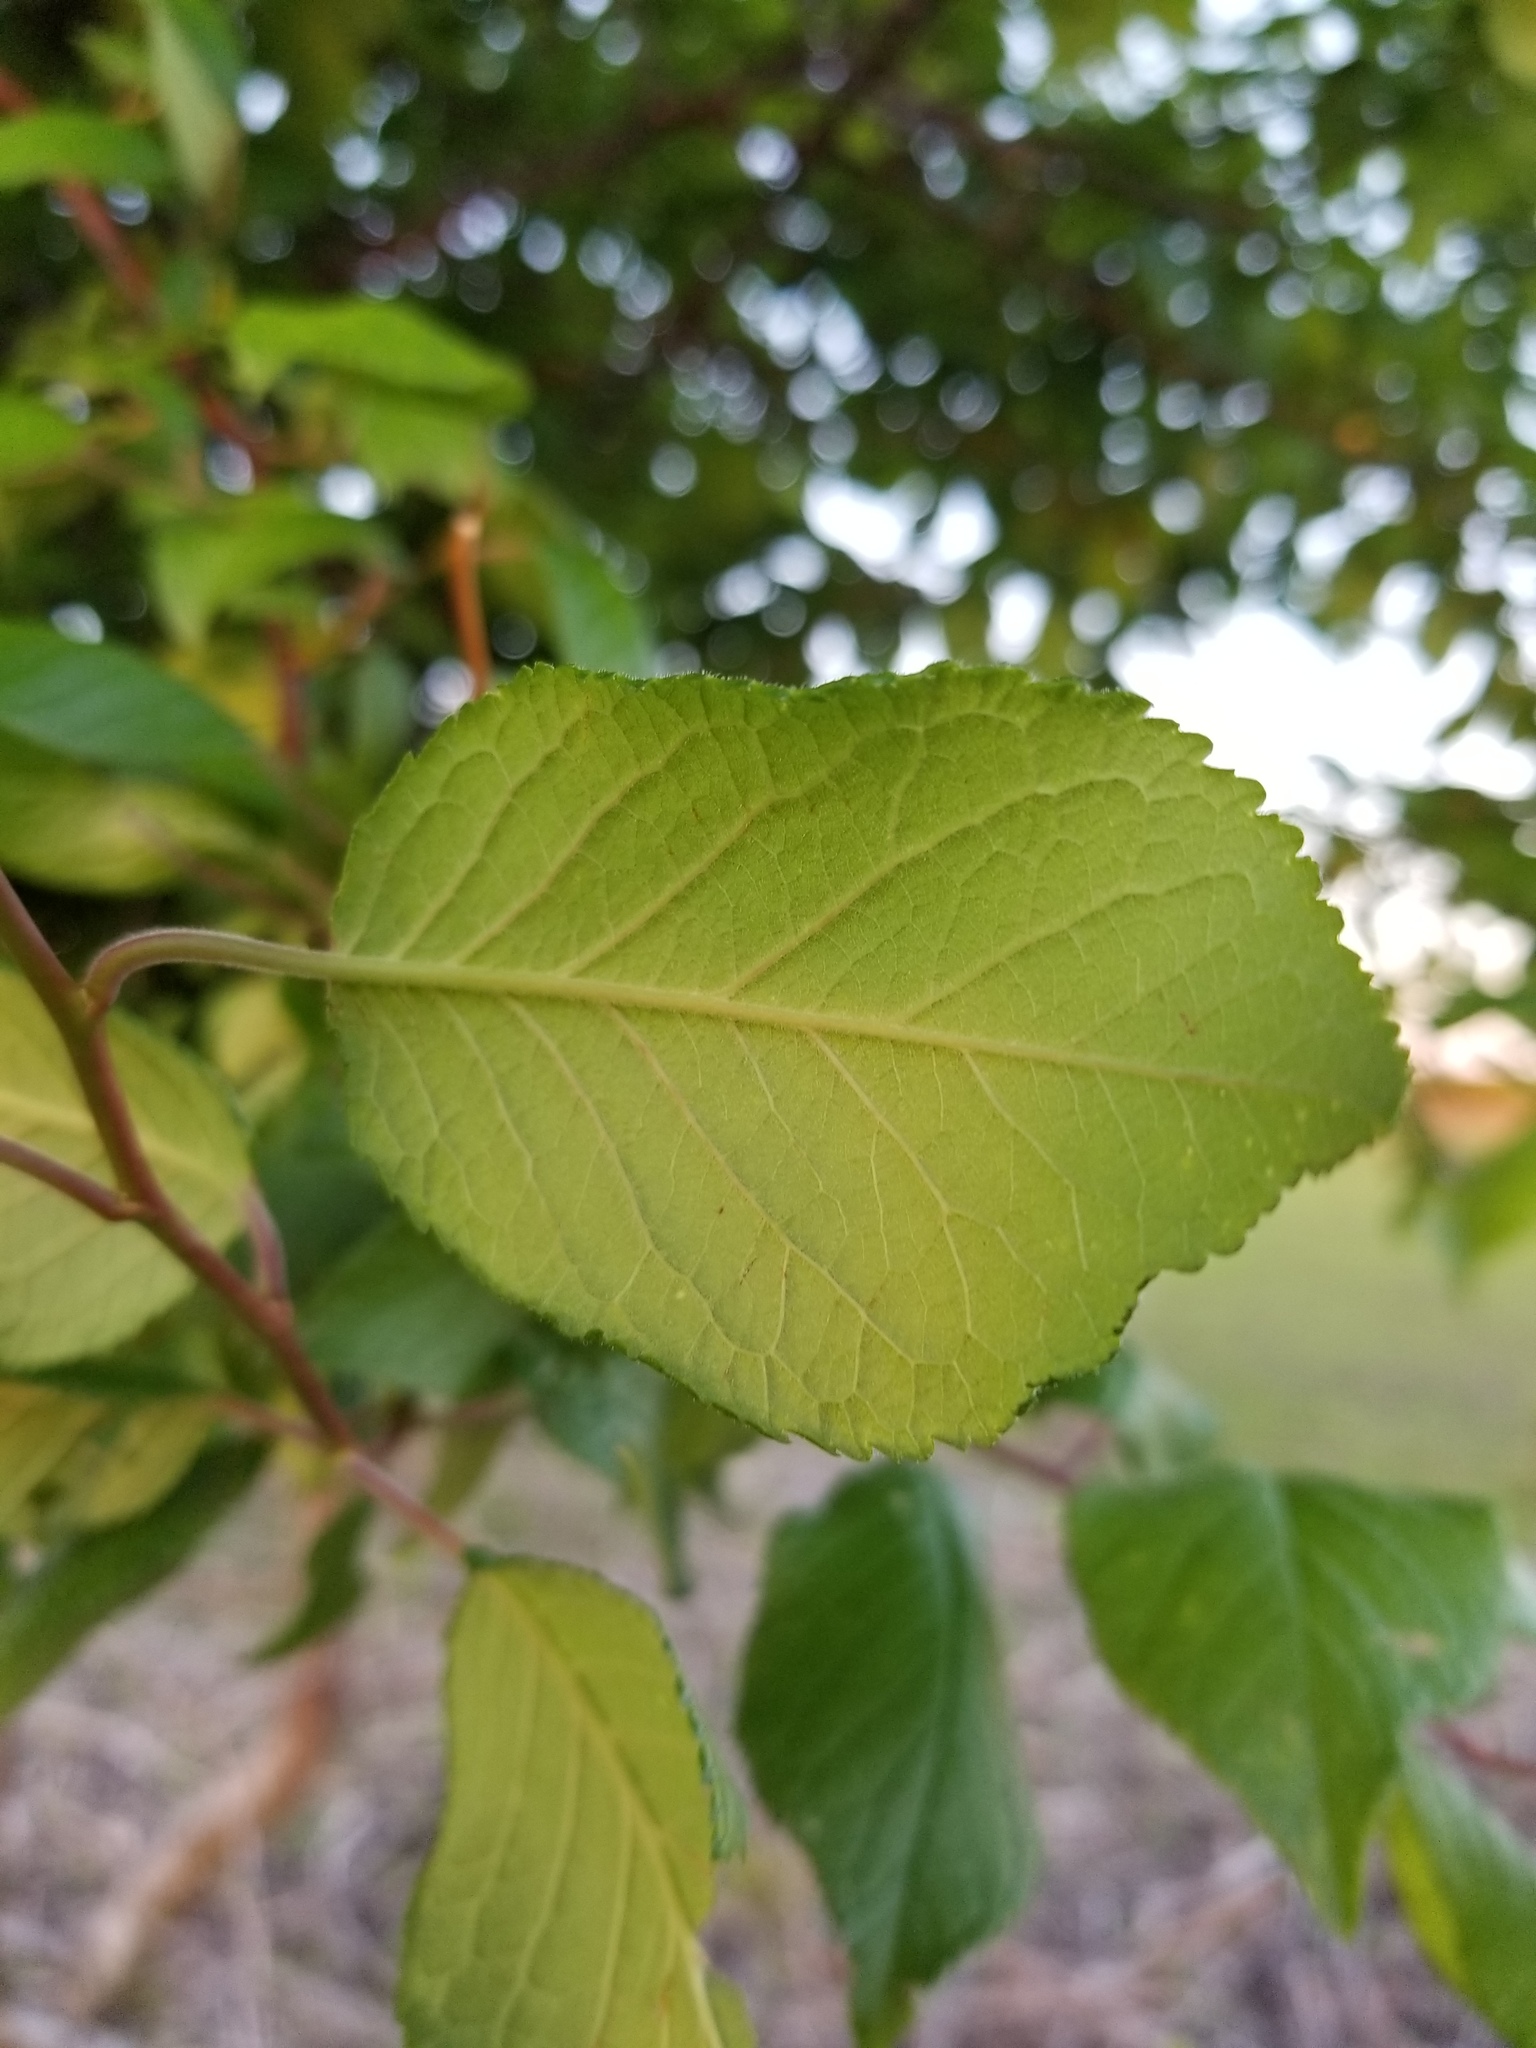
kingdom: Plantae
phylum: Tracheophyta
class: Magnoliopsida
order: Rosales
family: Rosaceae
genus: Prunus
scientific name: Prunus mexicana
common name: Mexican plum
